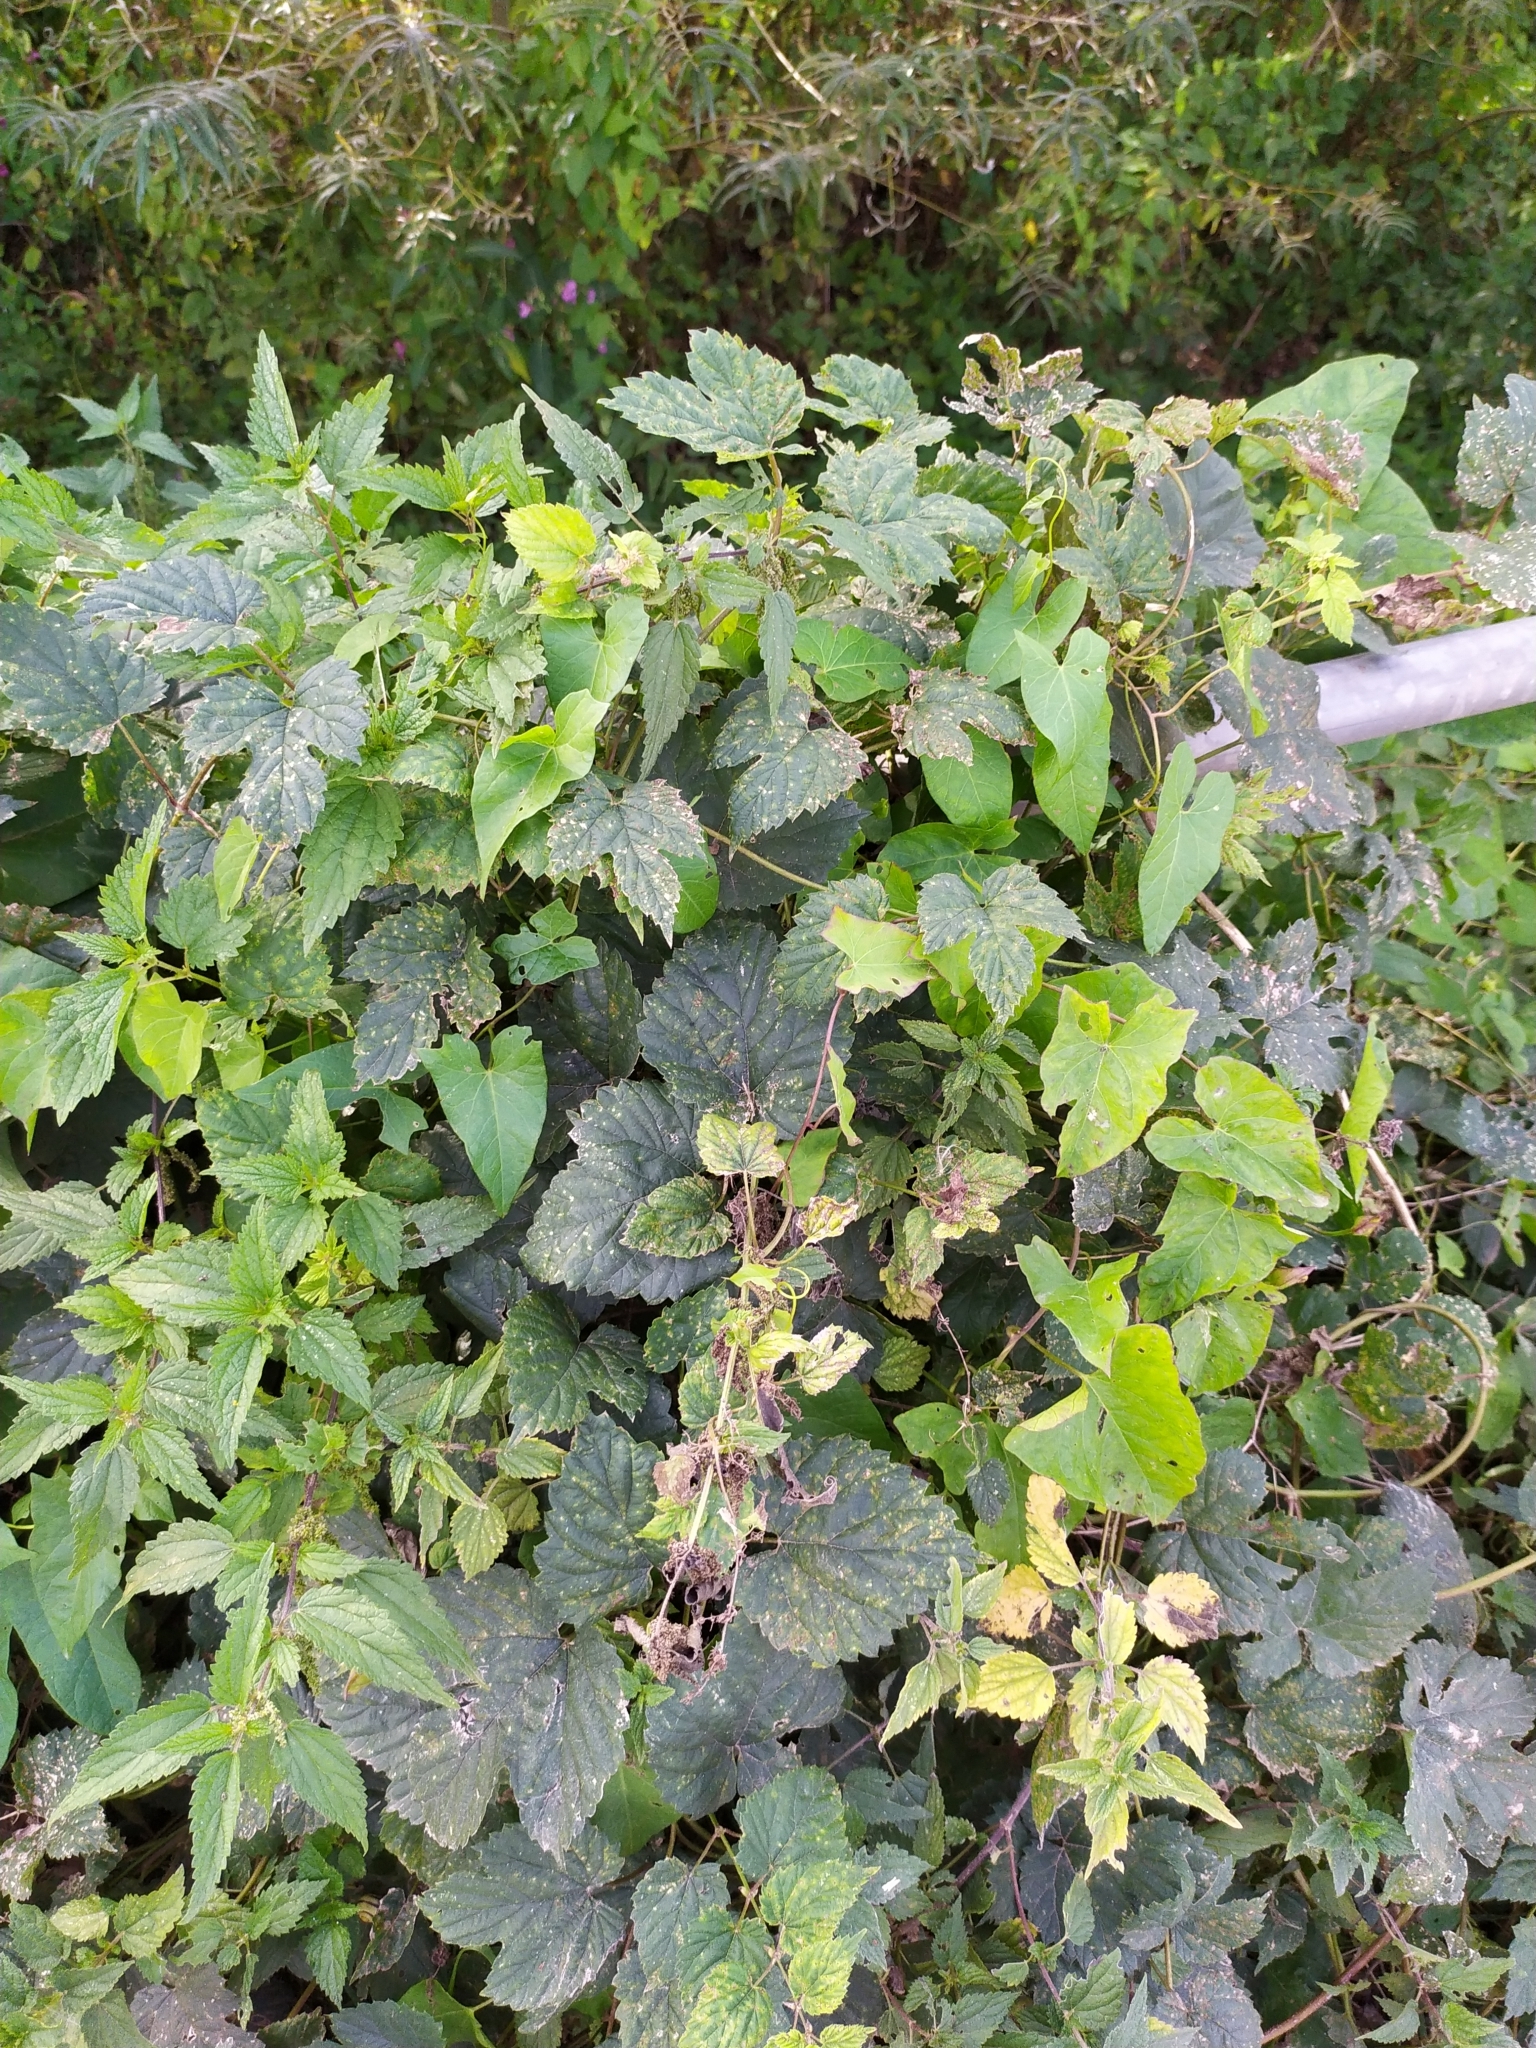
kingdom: Plantae
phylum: Tracheophyta
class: Magnoliopsida
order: Rosales
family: Cannabaceae
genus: Humulus
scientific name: Humulus lupulus
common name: Hop
